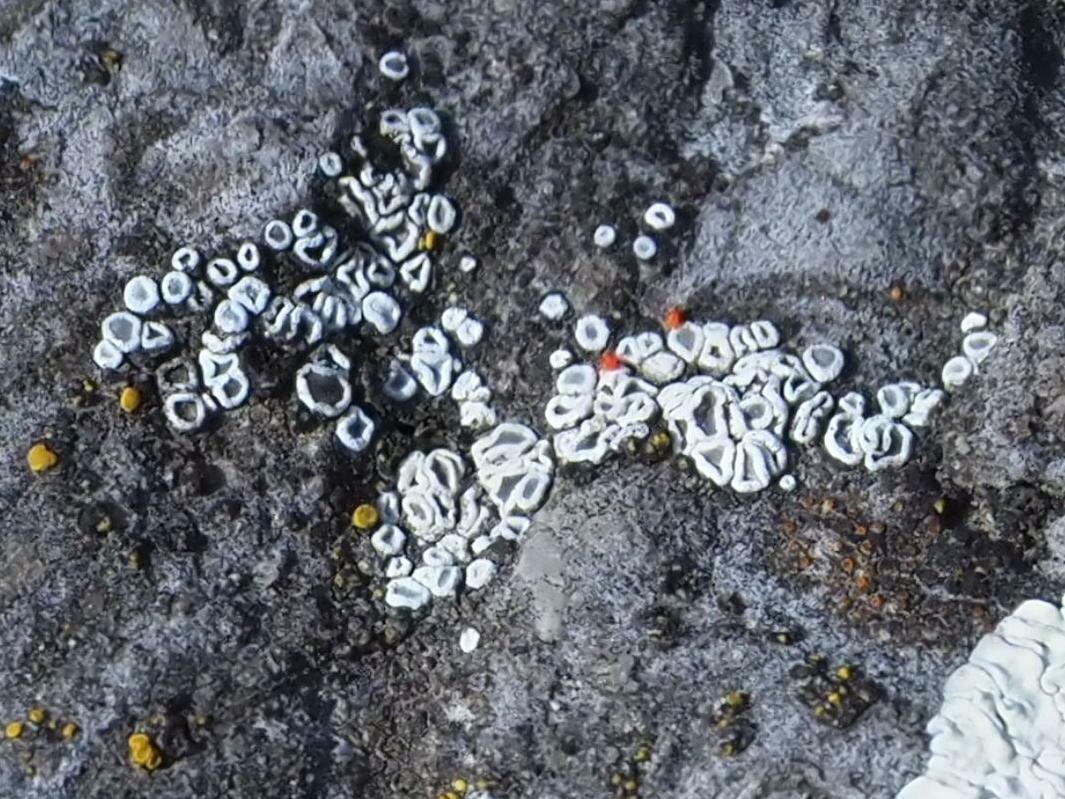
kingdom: Fungi
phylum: Ascomycota
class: Lecanoromycetes
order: Lecanorales
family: Lecanoraceae
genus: Polyozosia
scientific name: Polyozosia dispersa
